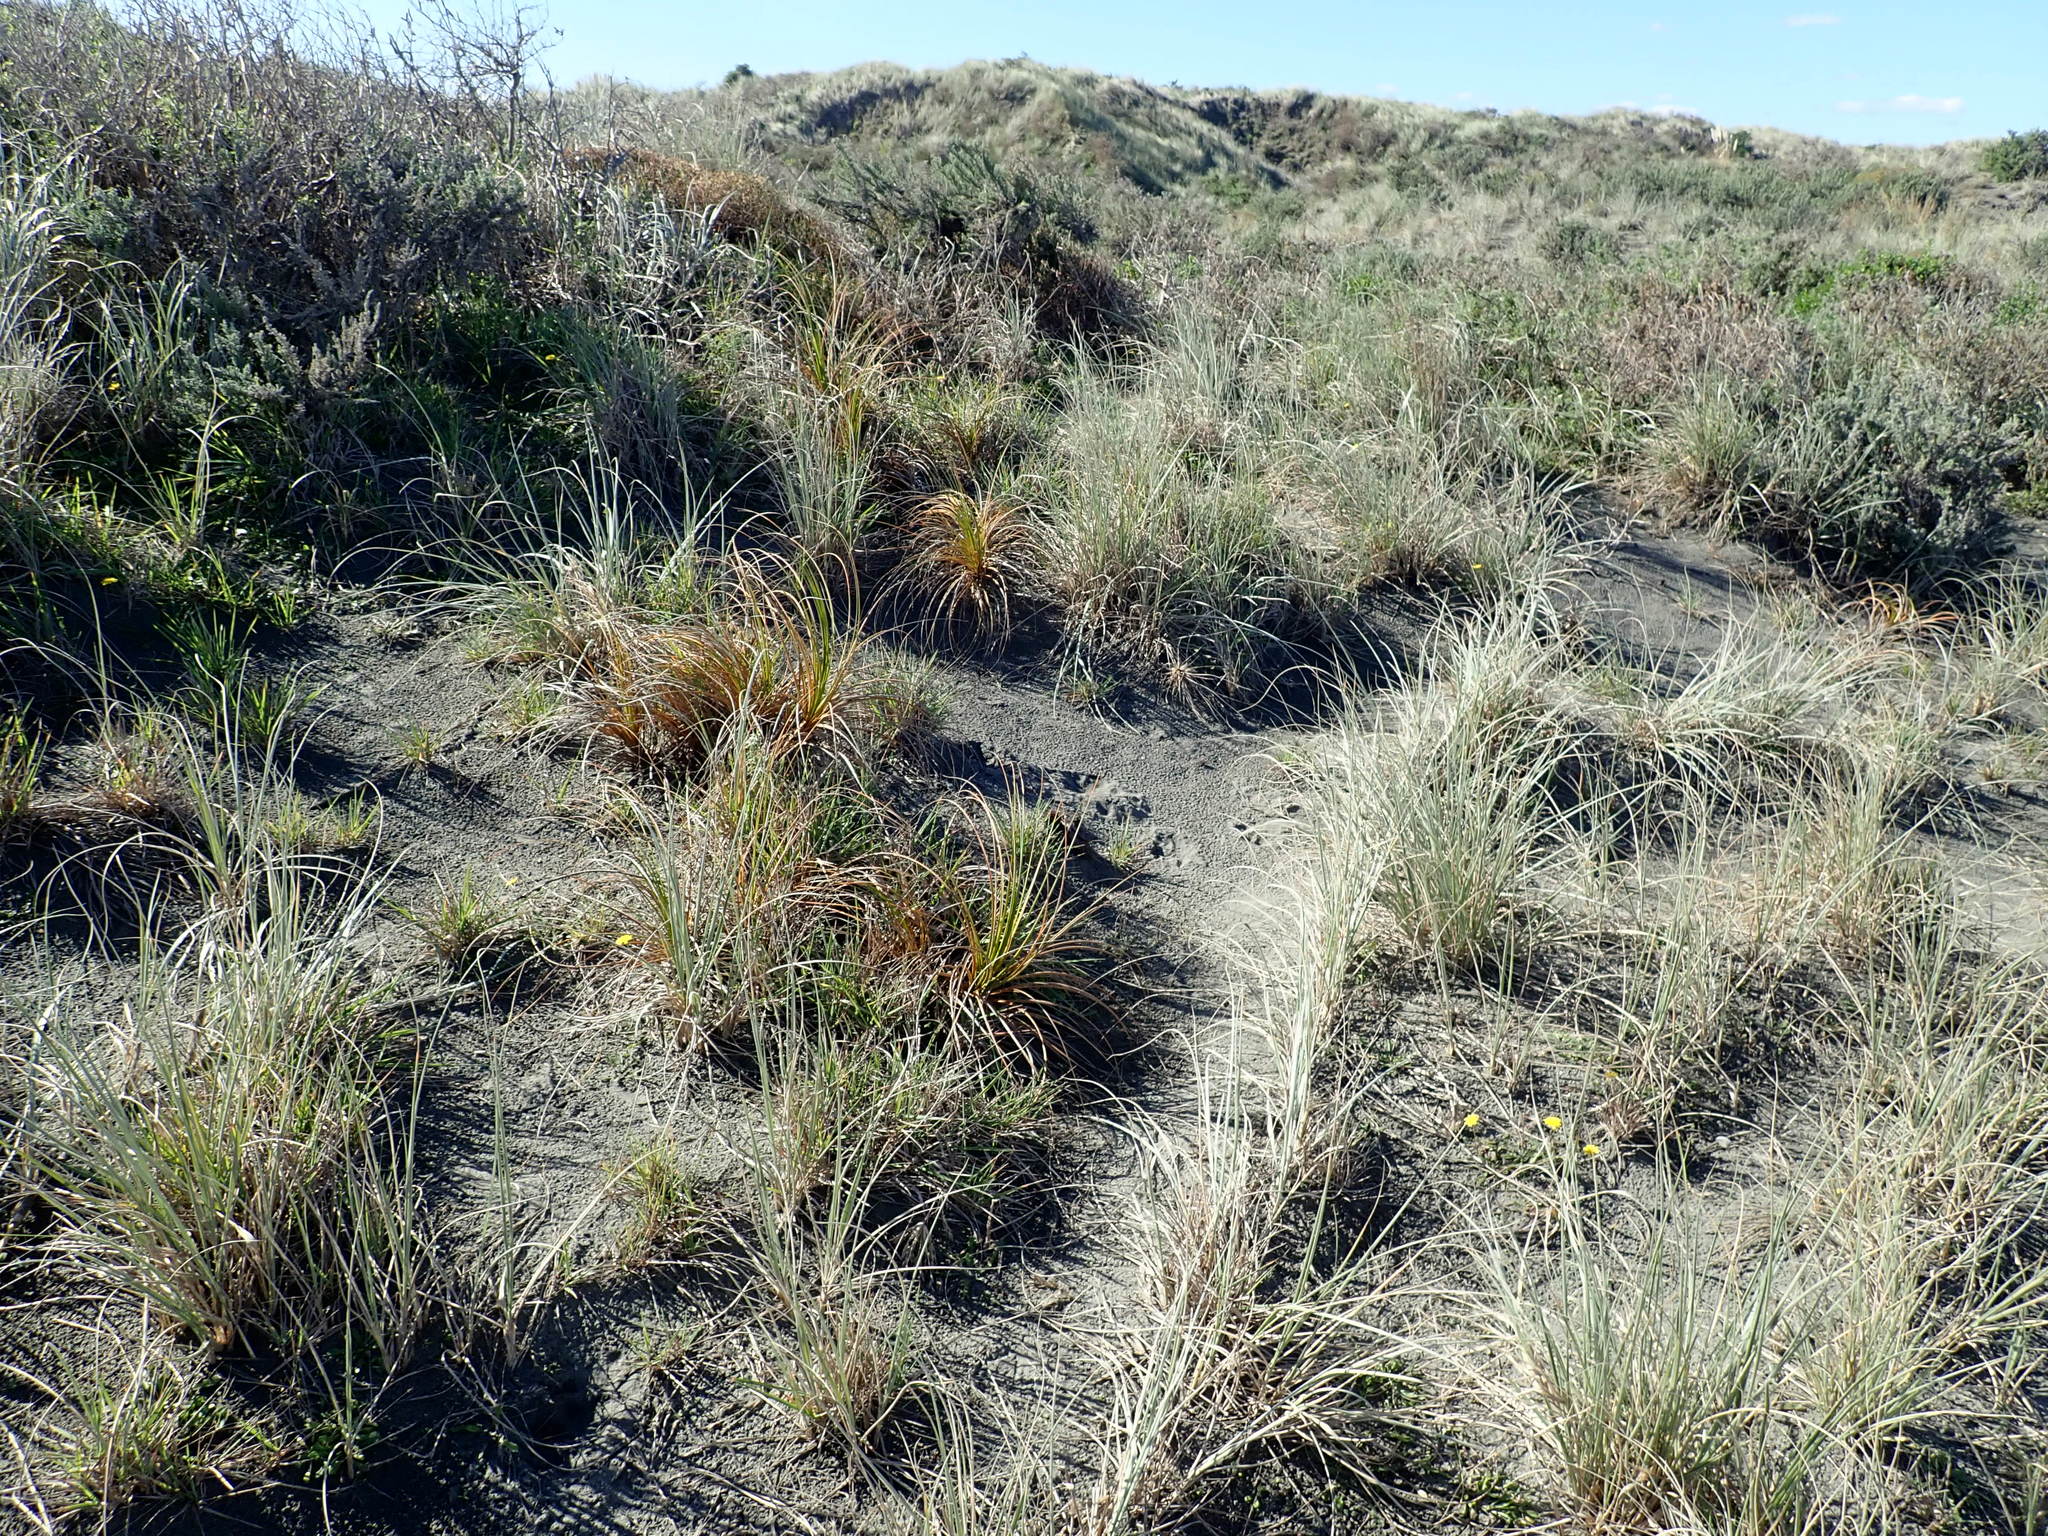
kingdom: Plantae
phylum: Tracheophyta
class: Liliopsida
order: Poales
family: Cyperaceae
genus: Ficinia
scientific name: Ficinia spiralis
